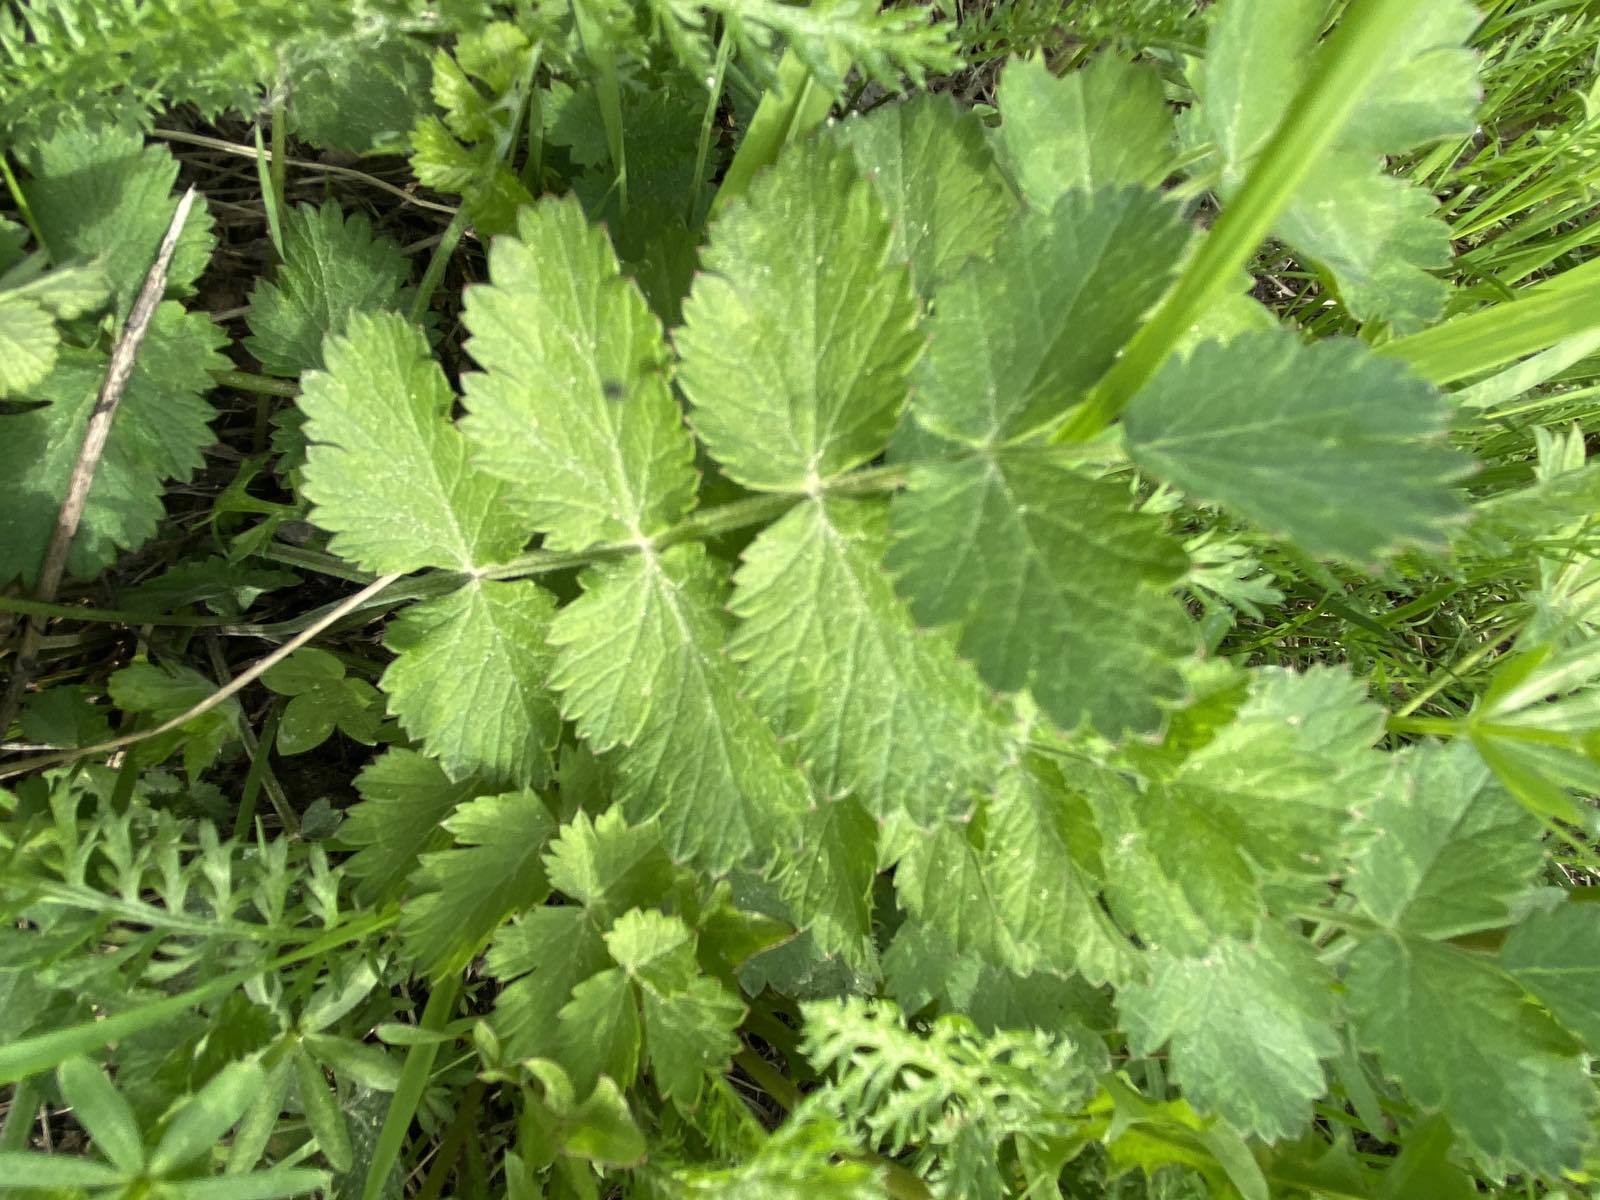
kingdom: Plantae
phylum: Tracheophyta
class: Magnoliopsida
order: Apiales
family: Apiaceae
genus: Pimpinella
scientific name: Pimpinella saxifraga
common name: Burnet-saxifrage
